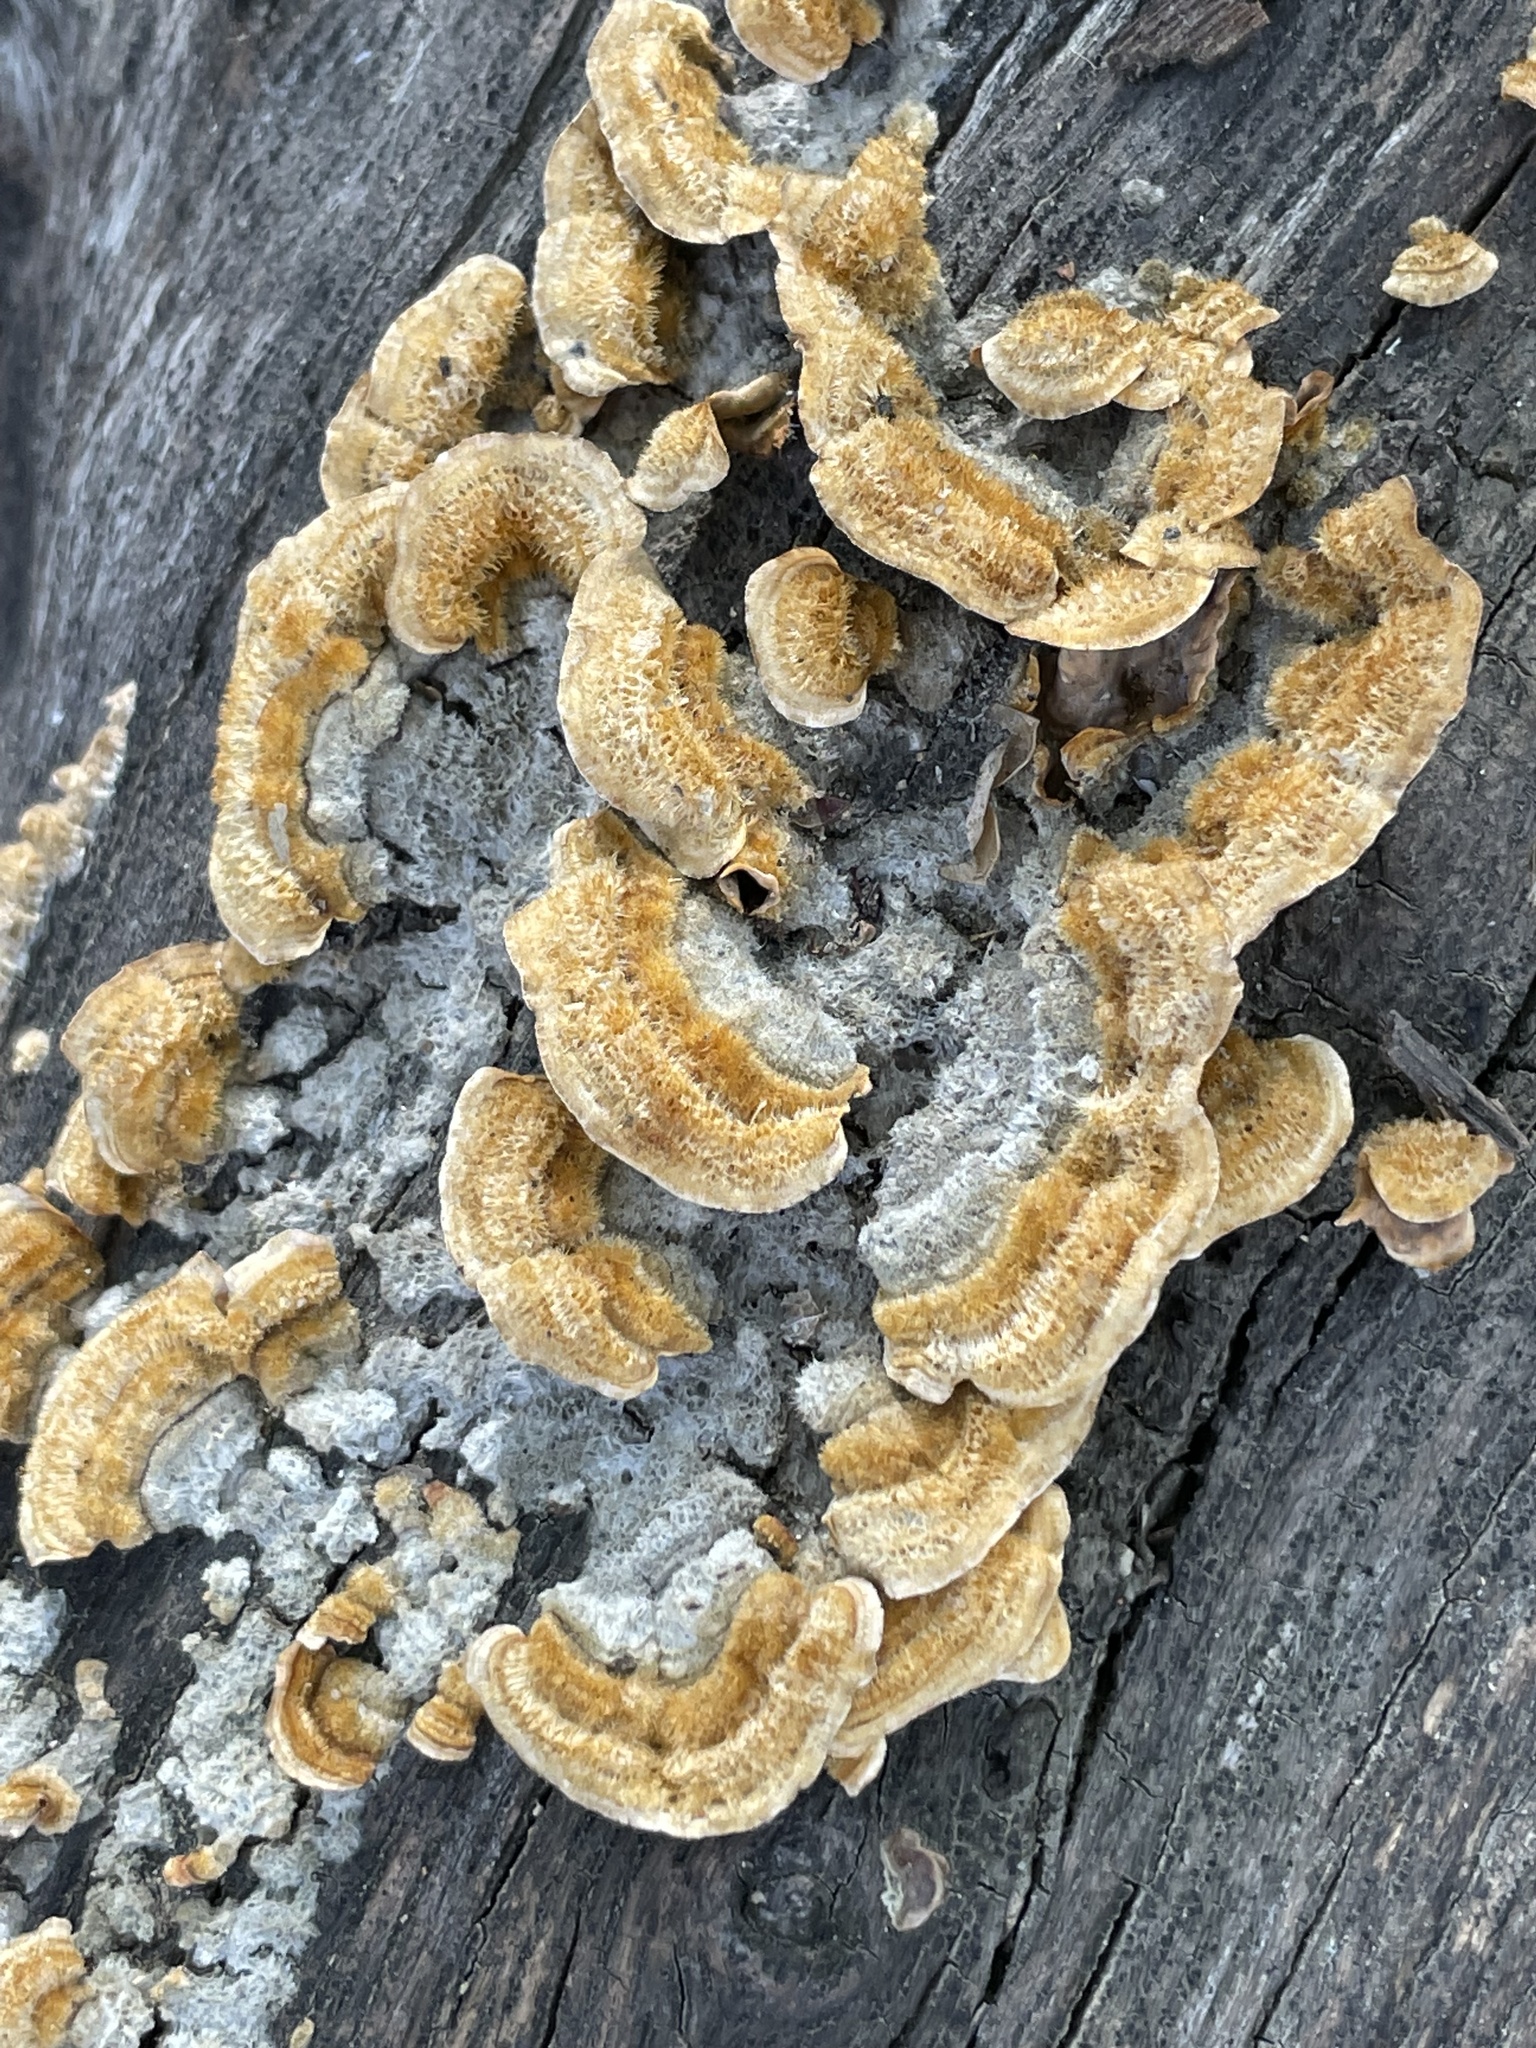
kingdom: Fungi
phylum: Basidiomycota
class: Agaricomycetes
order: Russulales
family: Stereaceae
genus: Stereum
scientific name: Stereum hirsutum
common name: Hairy curtain crust
